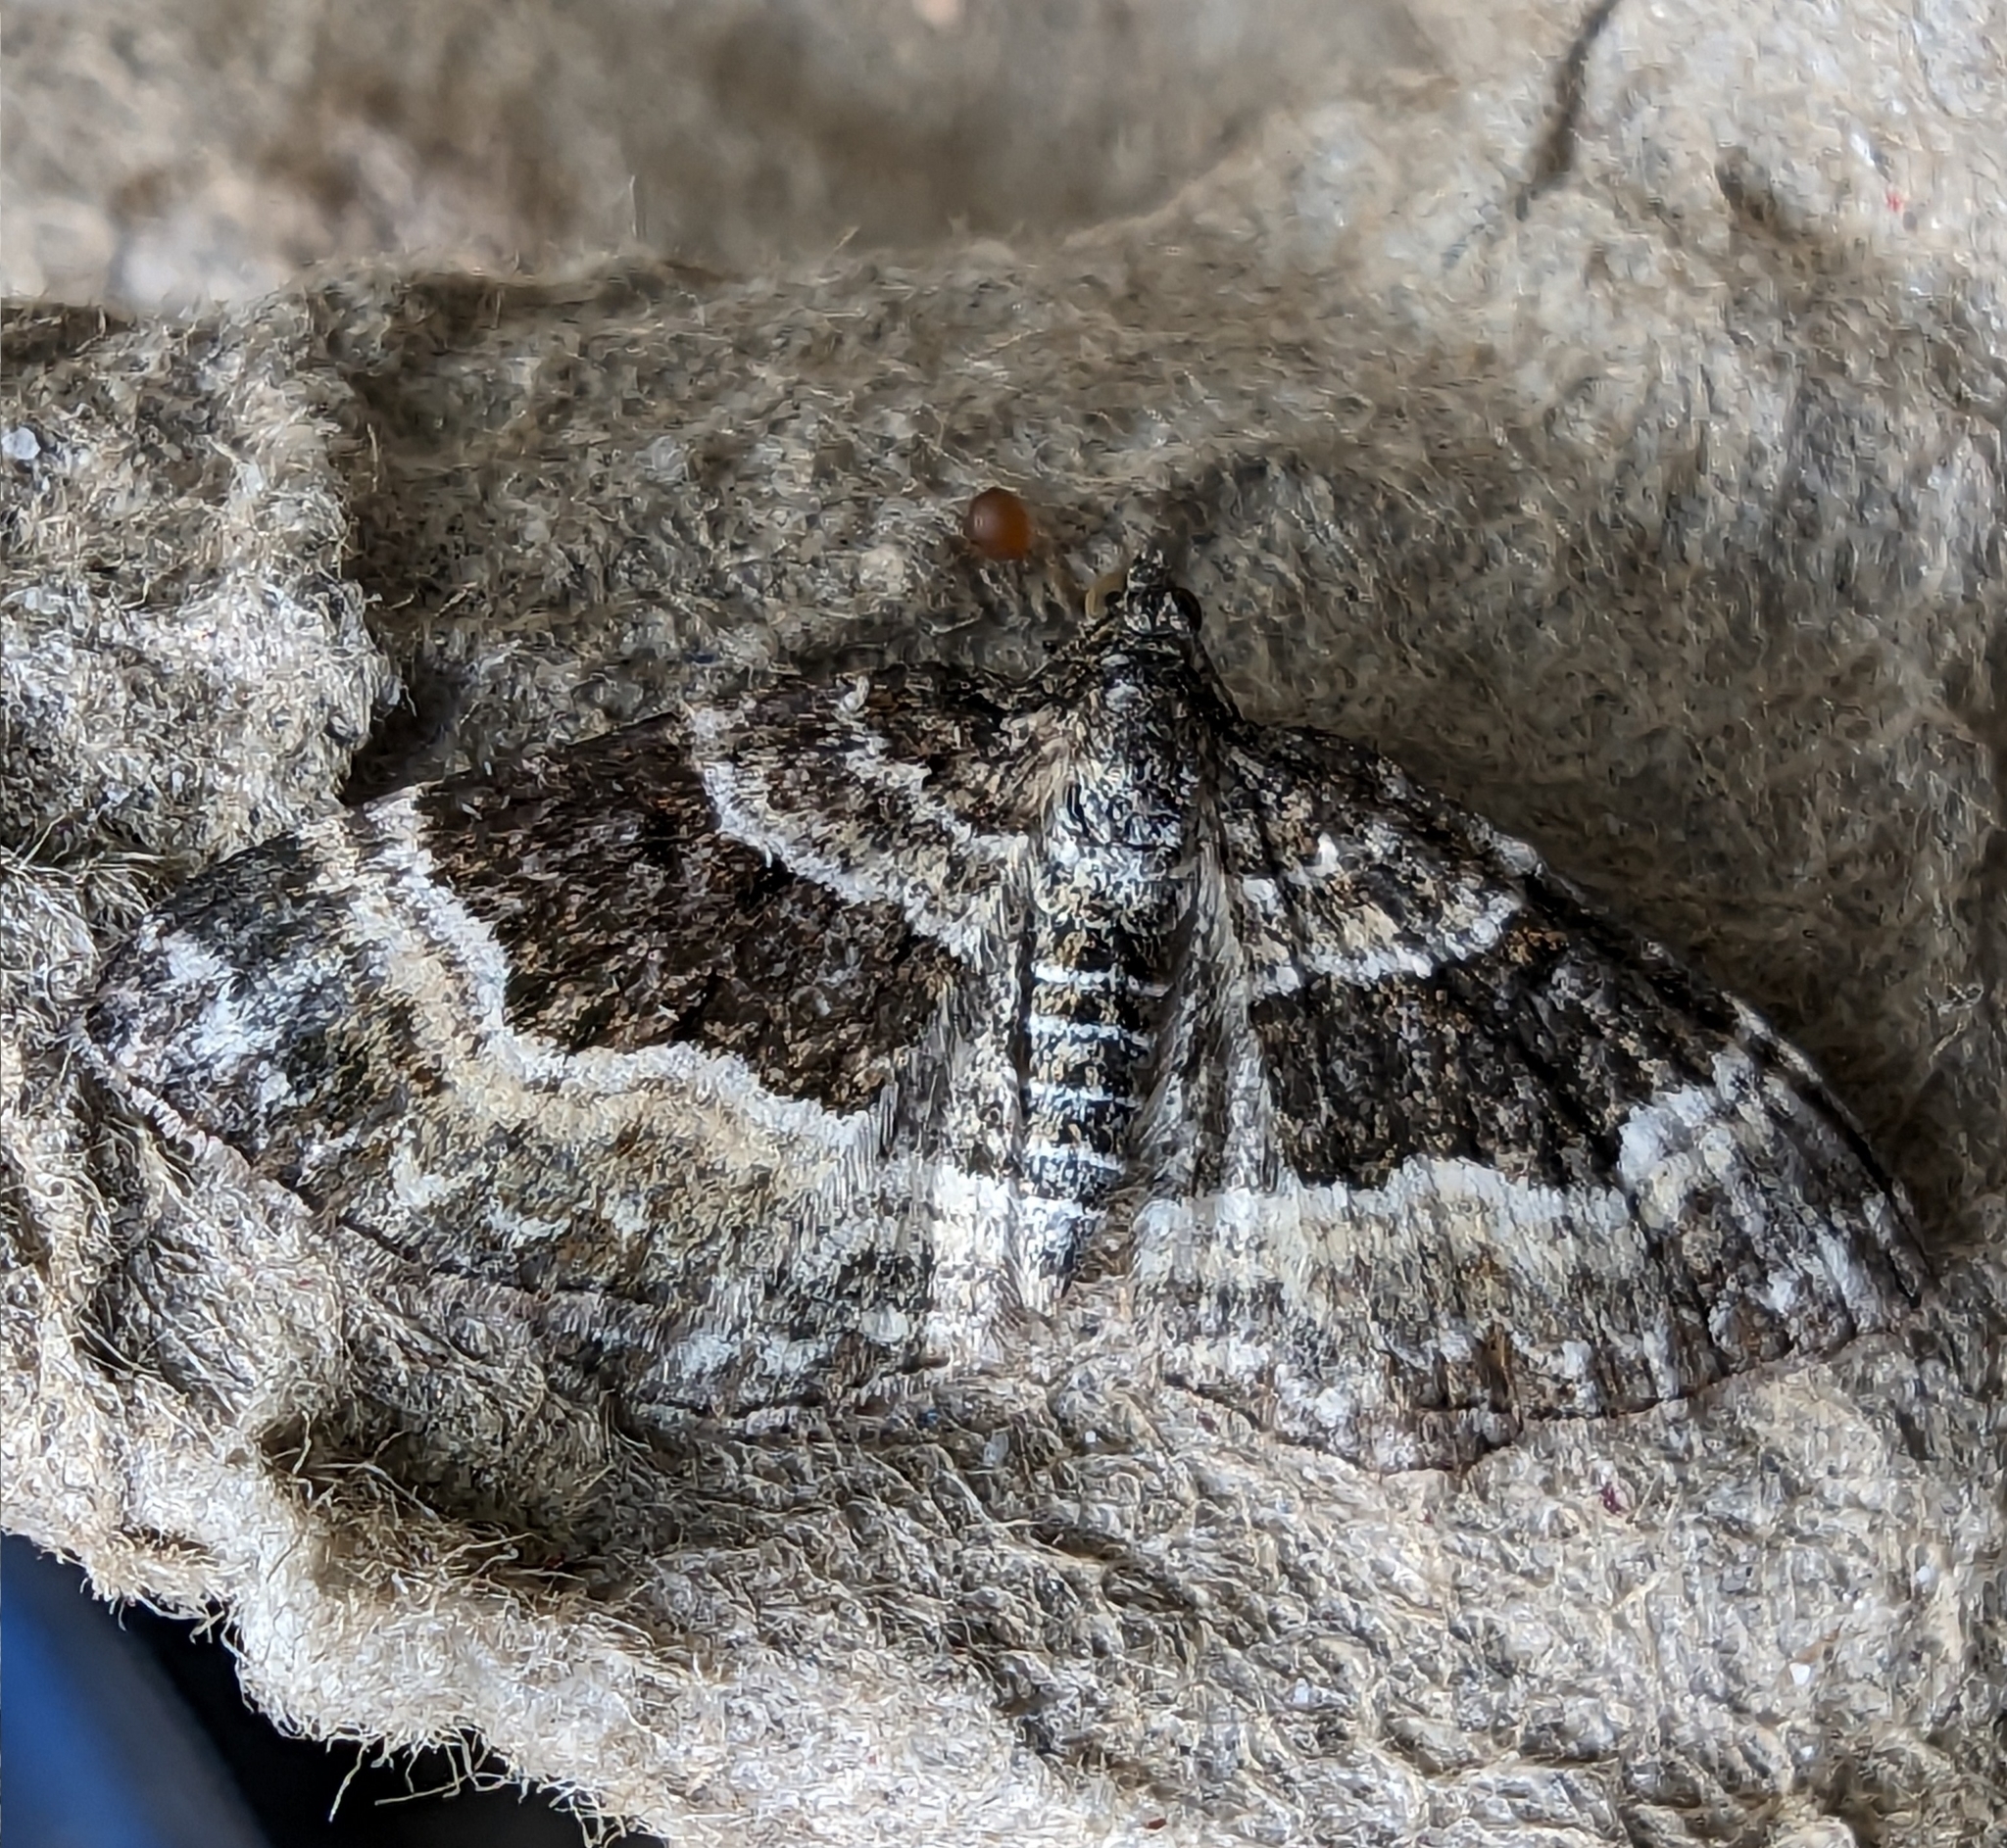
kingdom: Animalia
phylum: Arthropoda
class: Insecta
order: Lepidoptera
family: Geometridae
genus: Epirrhoe
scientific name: Epirrhoe alternata
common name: Common carpet
